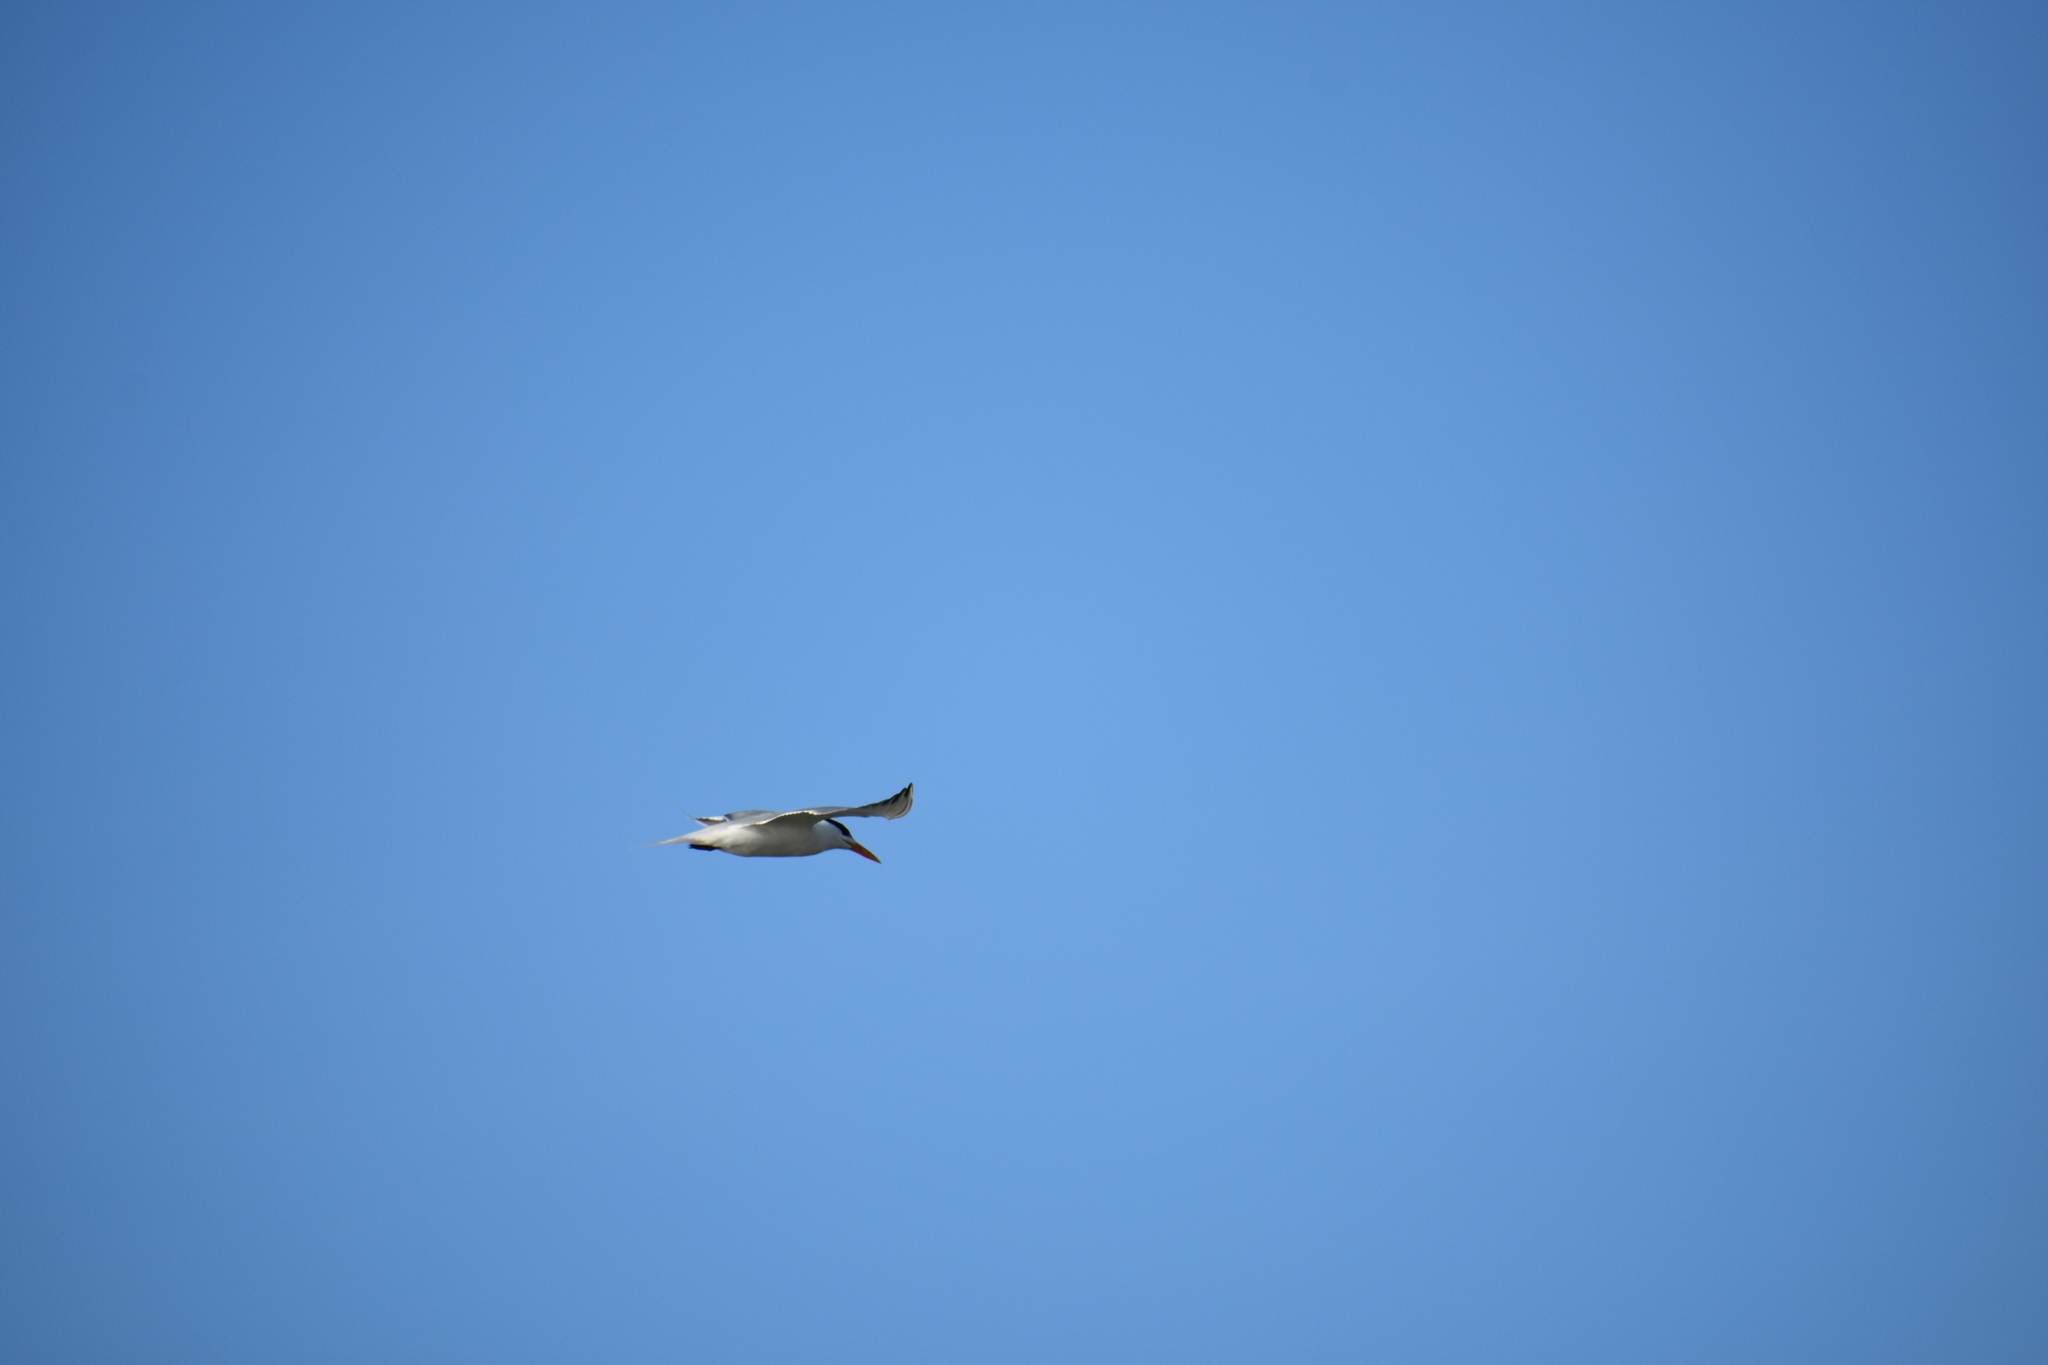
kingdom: Animalia
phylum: Chordata
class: Aves
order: Charadriiformes
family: Laridae
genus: Thalasseus
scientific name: Thalasseus maximus
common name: Royal tern
